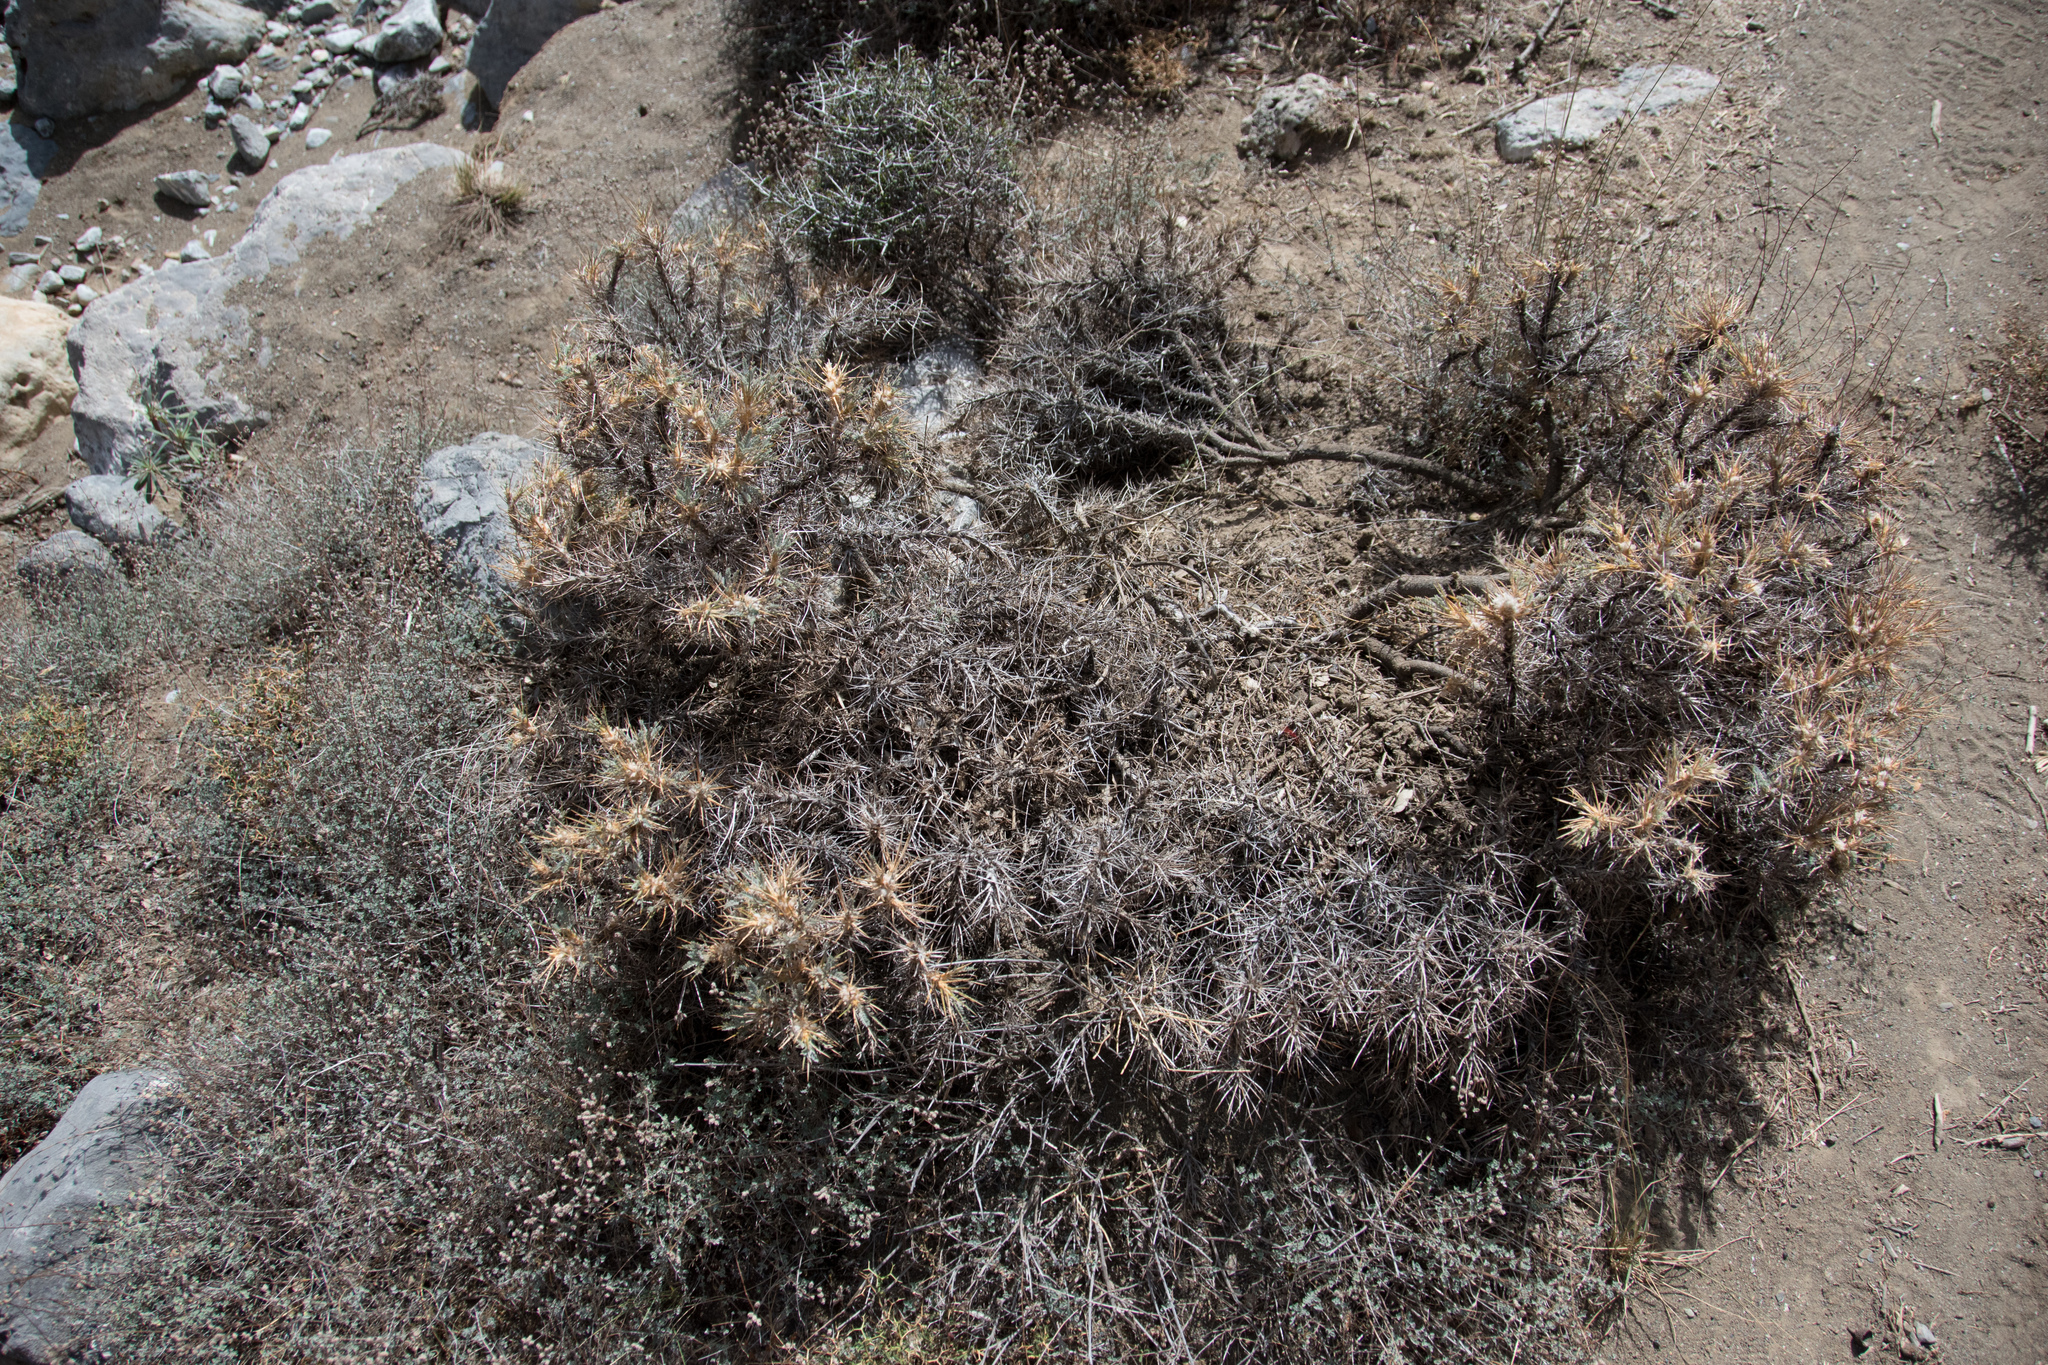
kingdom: Plantae
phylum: Tracheophyta
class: Magnoliopsida
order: Fabales
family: Fabaceae
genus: Astragalus
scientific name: Astragalus creticus
